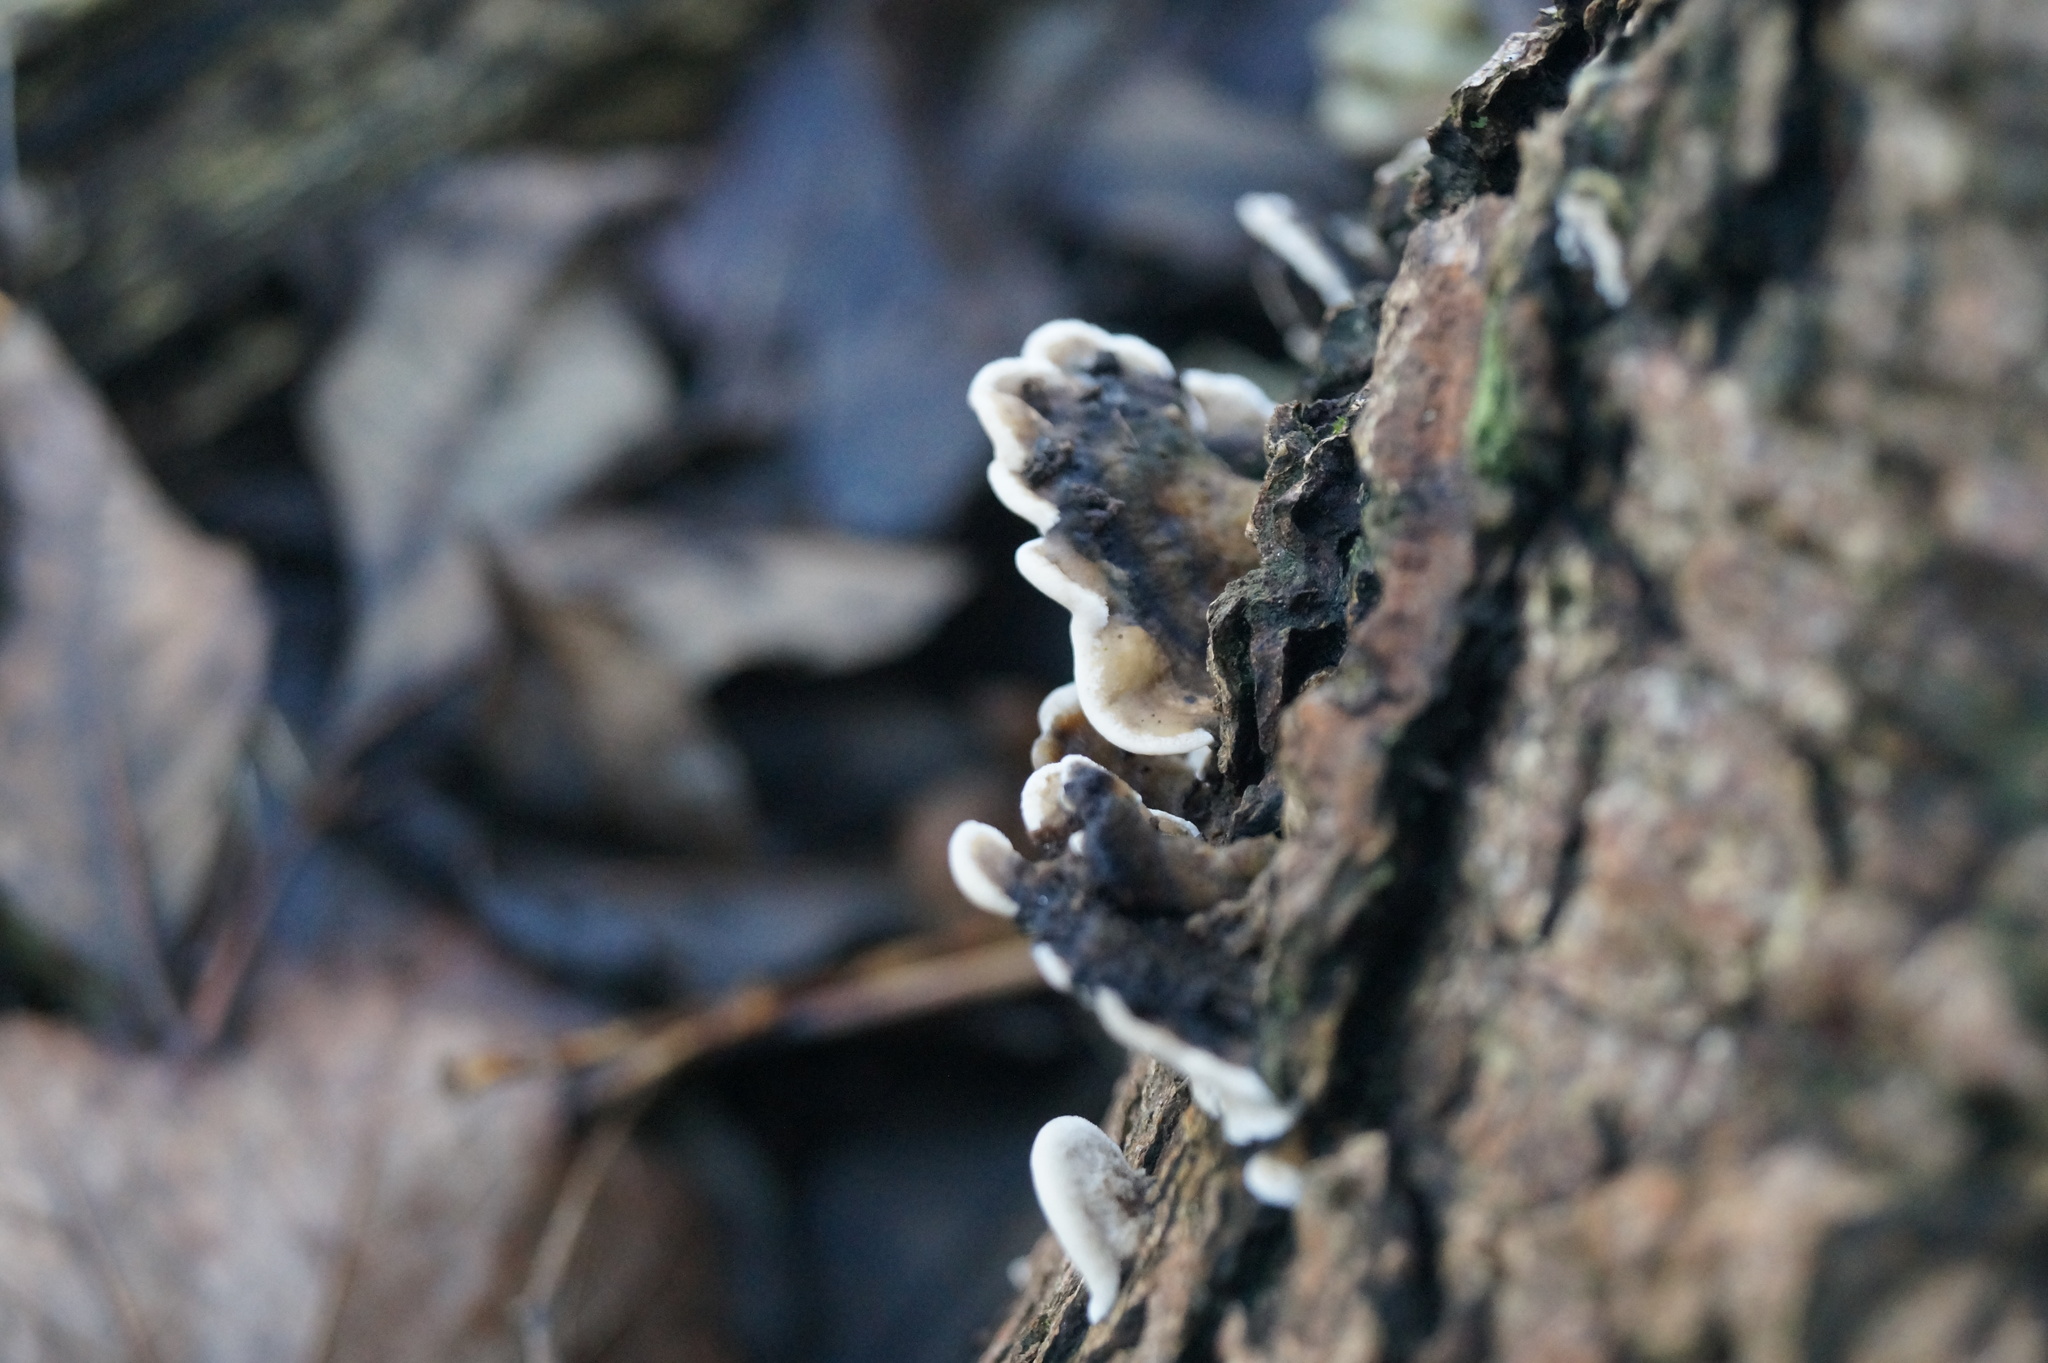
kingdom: Fungi
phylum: Basidiomycota
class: Agaricomycetes
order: Polyporales
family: Polyporaceae
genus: Trametes
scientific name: Trametes versicolor
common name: Turkeytail
